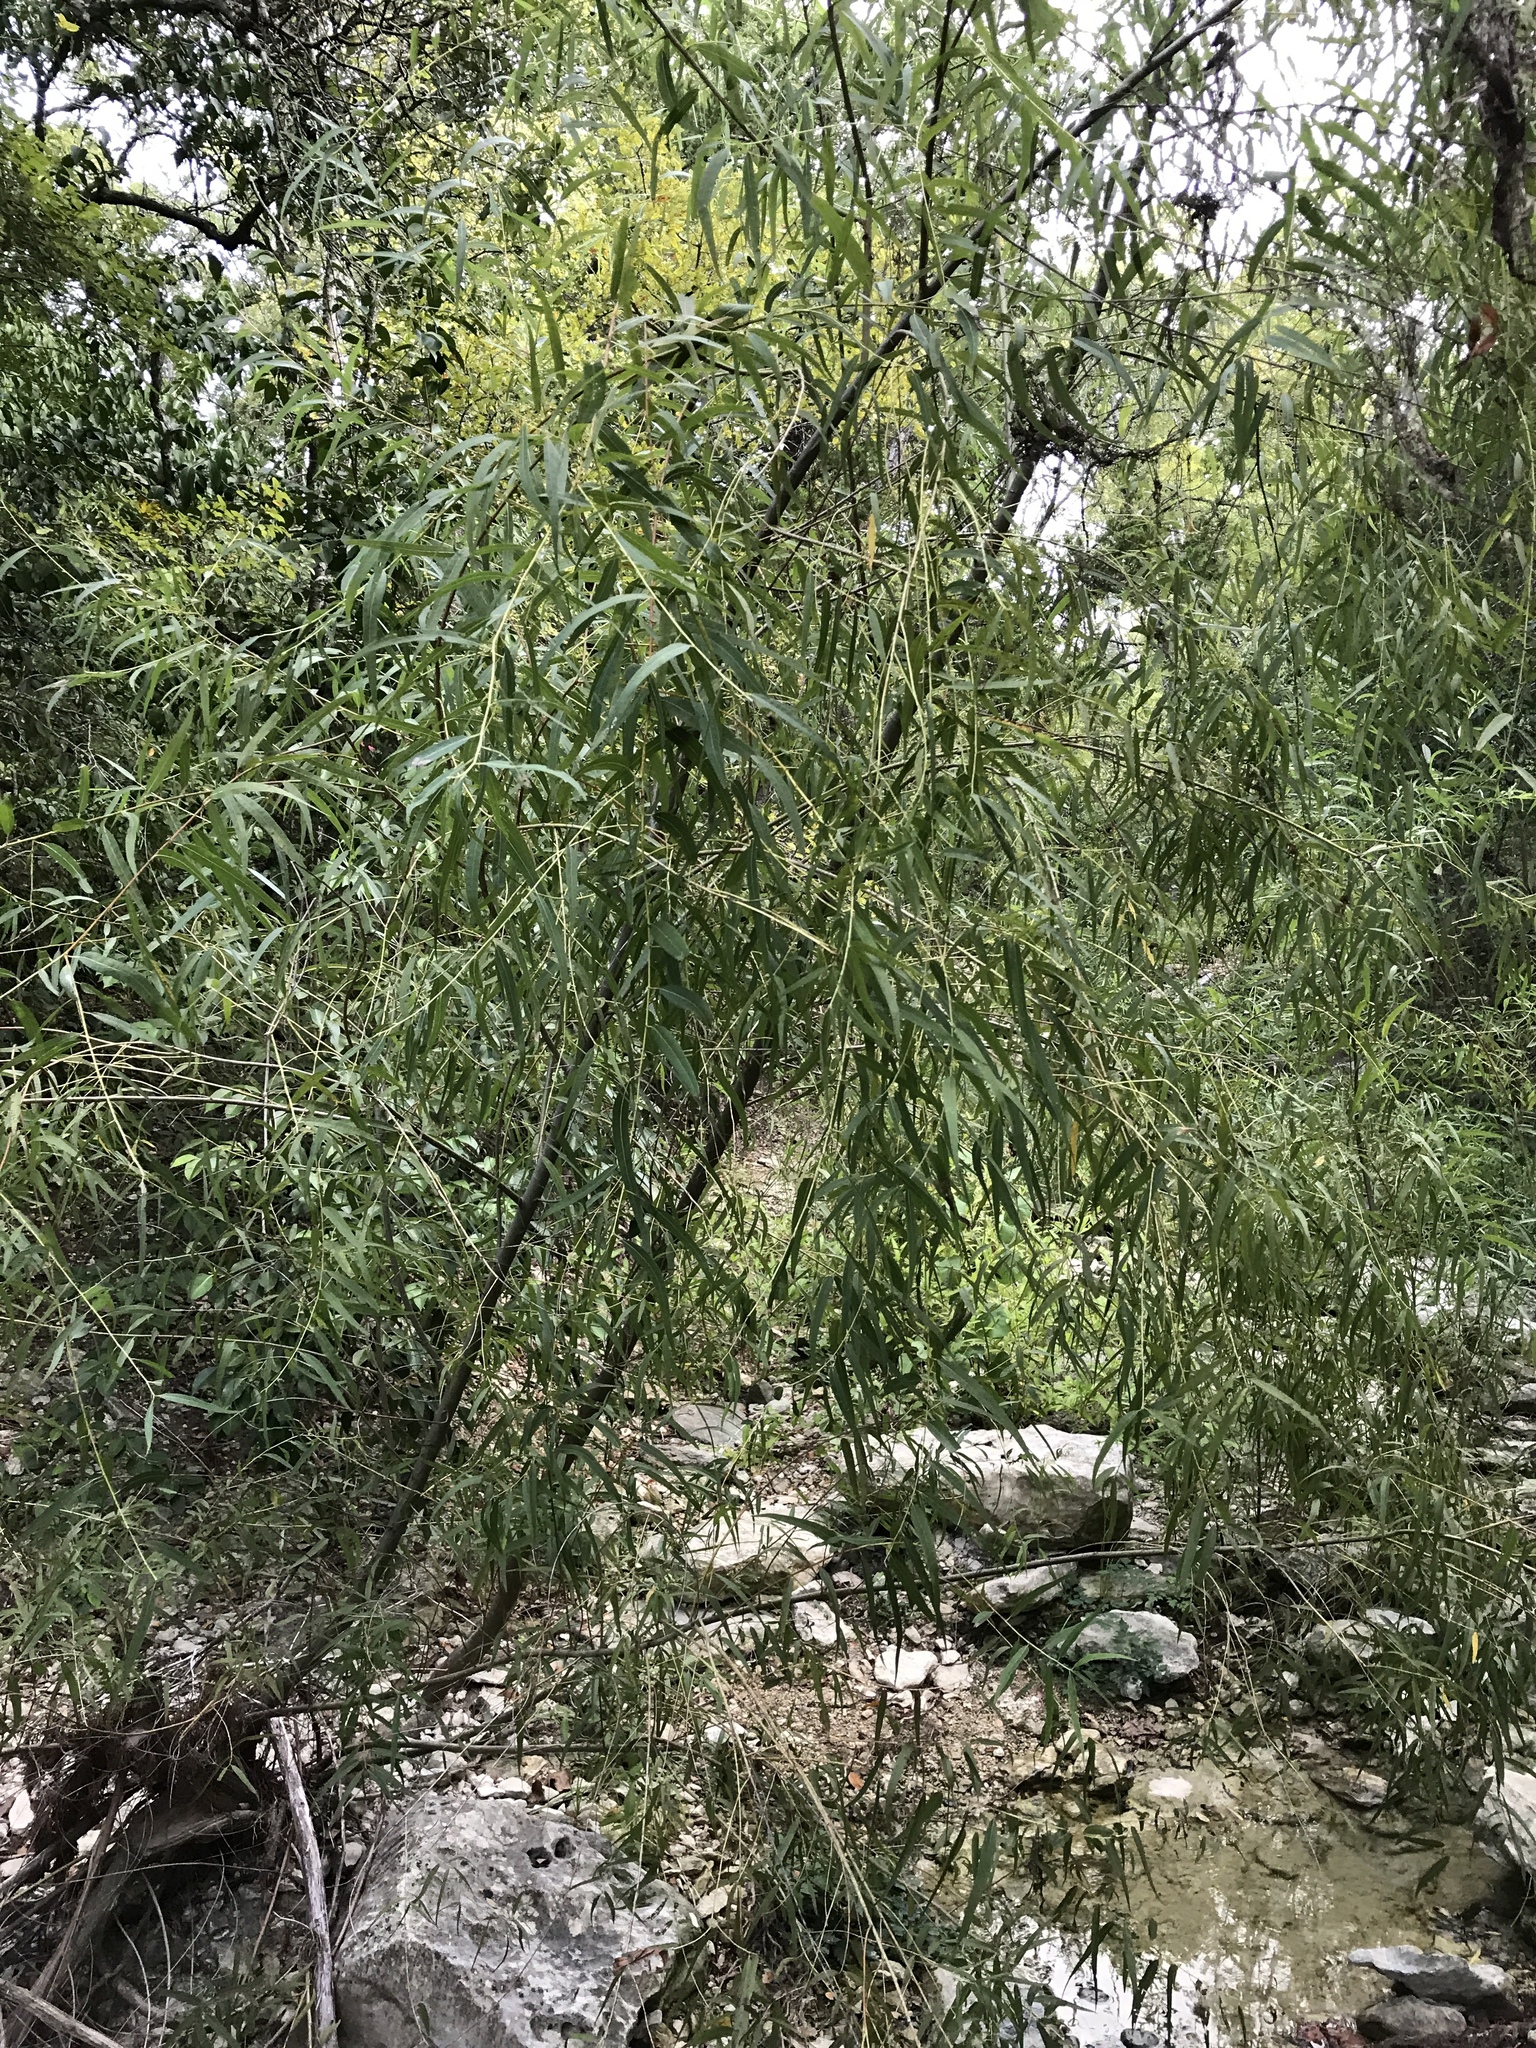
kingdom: Plantae
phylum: Tracheophyta
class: Magnoliopsida
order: Malpighiales
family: Salicaceae
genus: Salix
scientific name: Salix nigra
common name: Black willow
